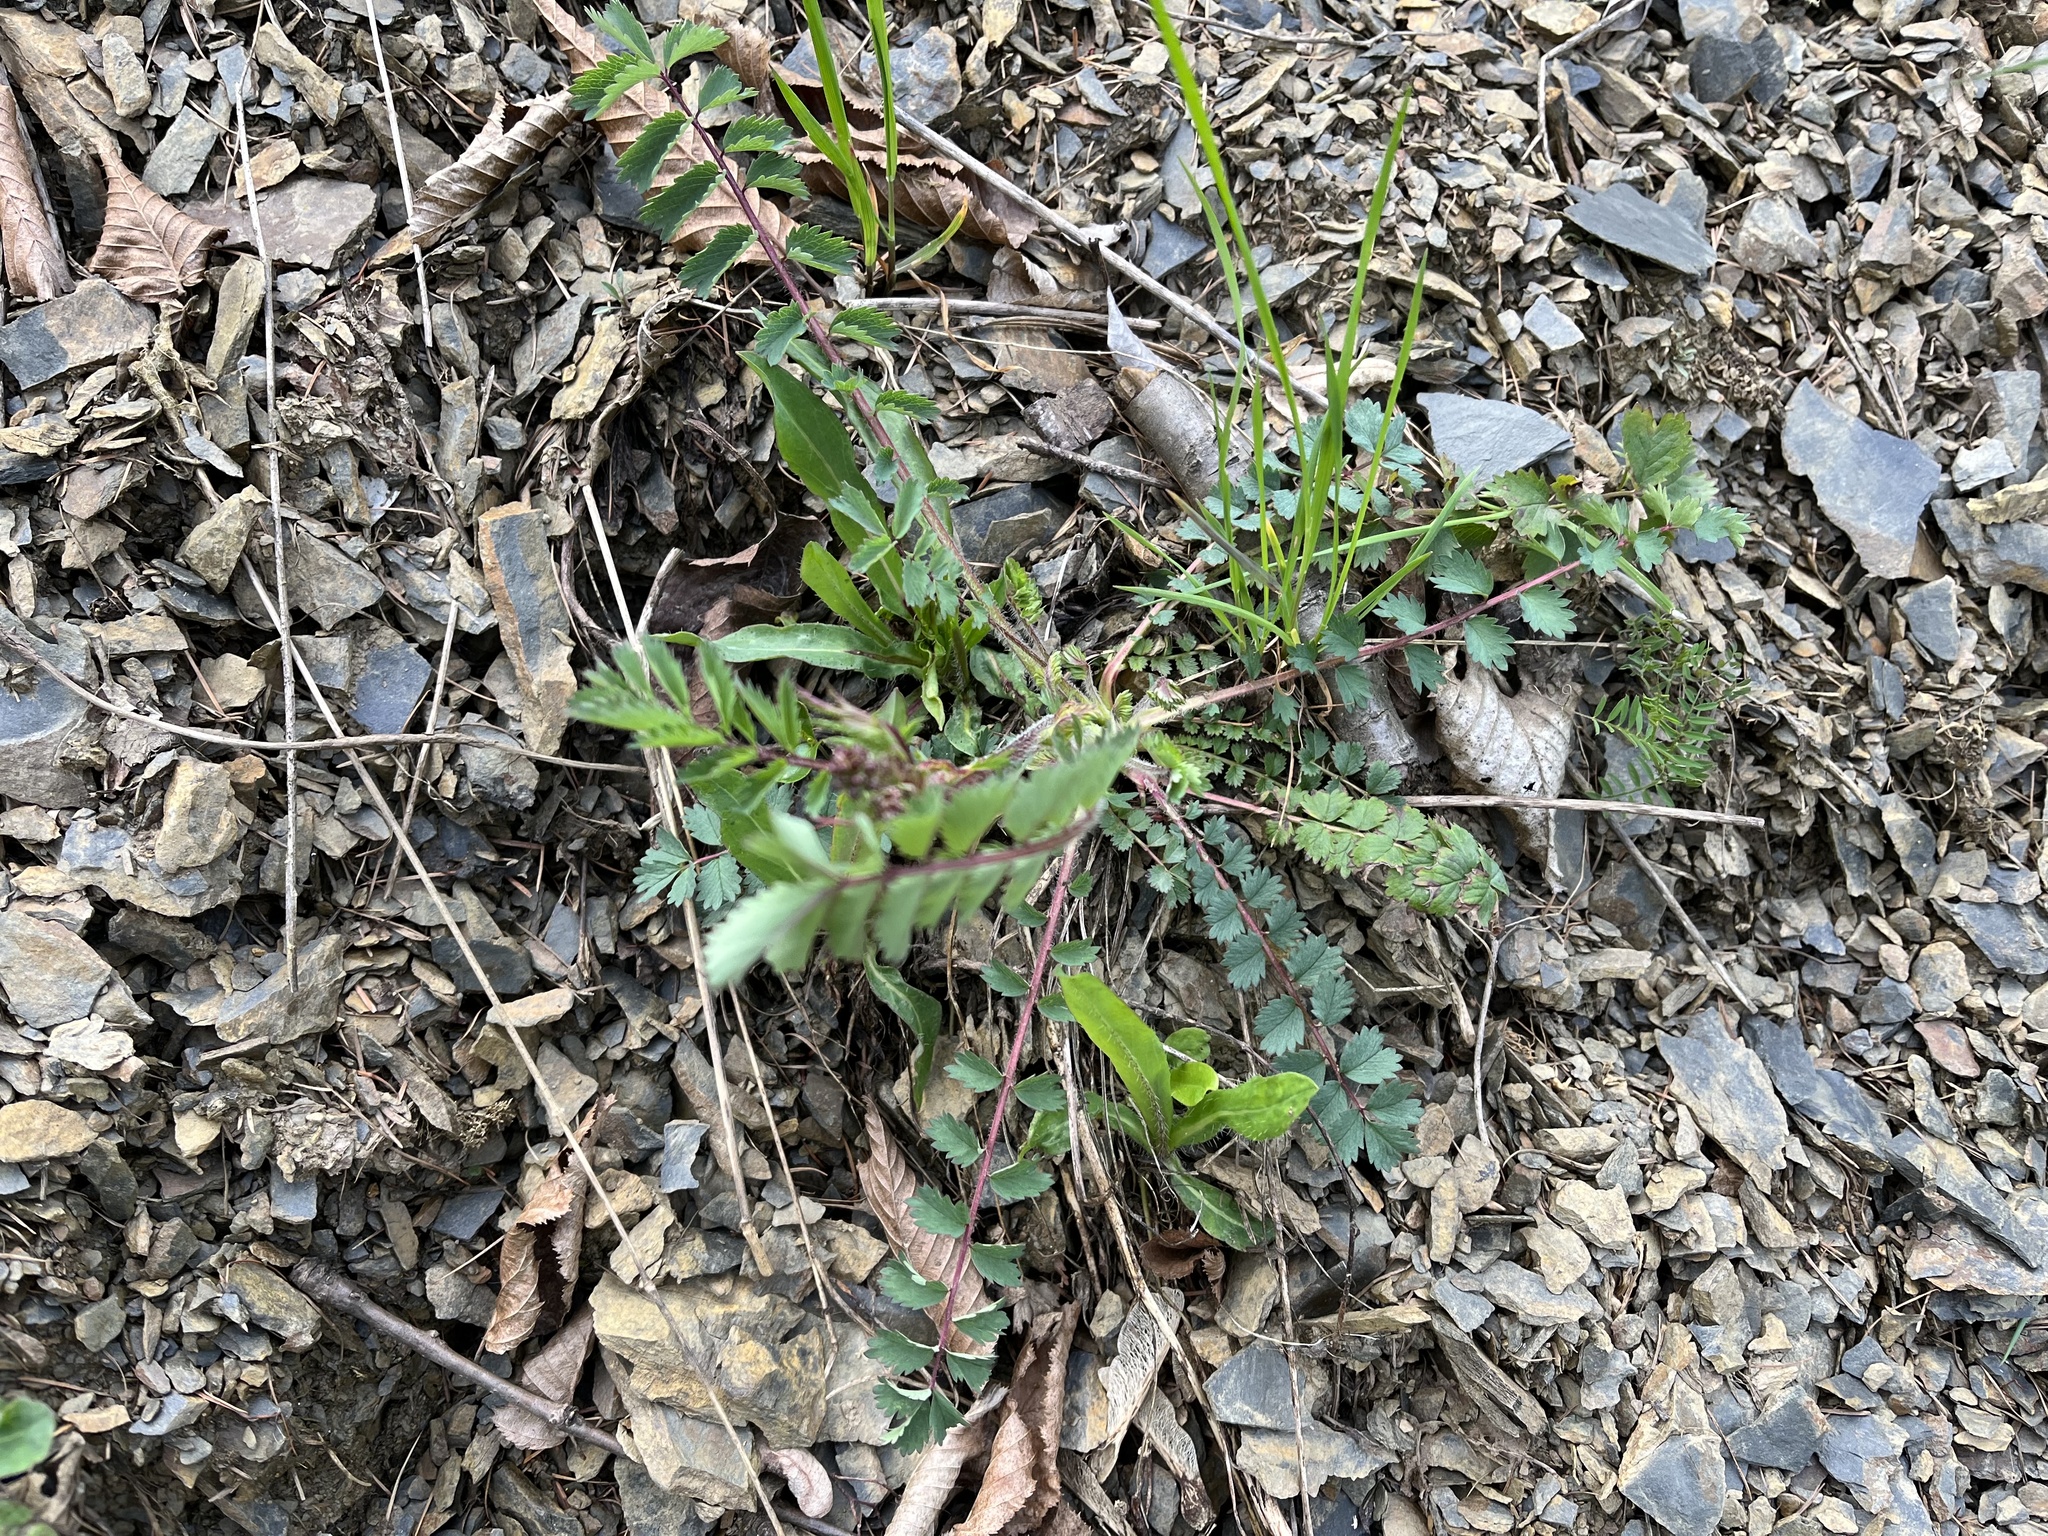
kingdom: Plantae
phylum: Tracheophyta
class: Magnoliopsida
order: Rosales
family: Rosaceae
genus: Poterium
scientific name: Poterium sanguisorba
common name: Salad burnet
